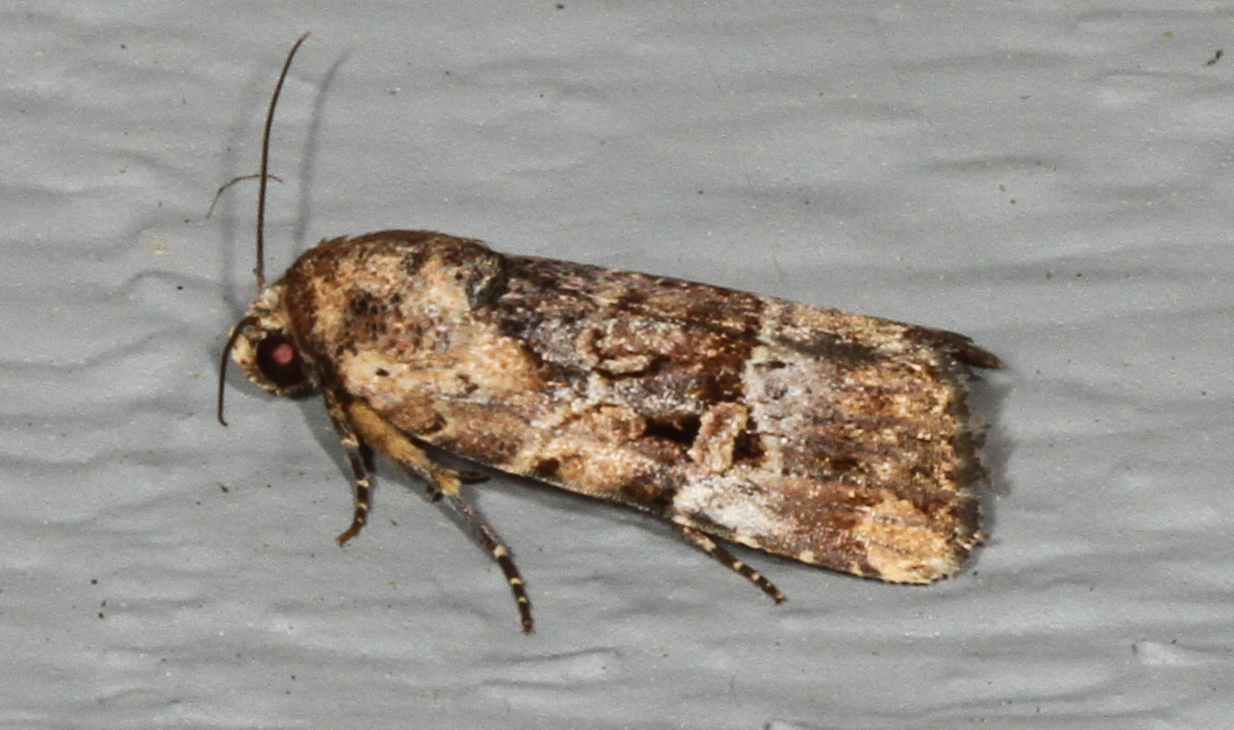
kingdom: Animalia
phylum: Arthropoda
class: Insecta
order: Lepidoptera
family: Noctuidae
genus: Elaphria
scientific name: Elaphria chalcedonia
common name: Chalcedony midget
